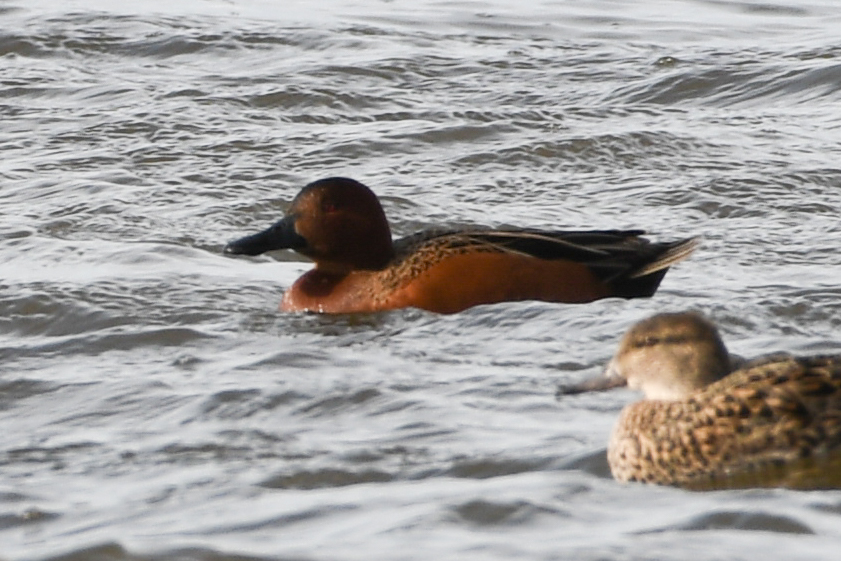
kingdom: Animalia
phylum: Chordata
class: Aves
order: Anseriformes
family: Anatidae
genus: Spatula
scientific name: Spatula cyanoptera
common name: Cinnamon teal
